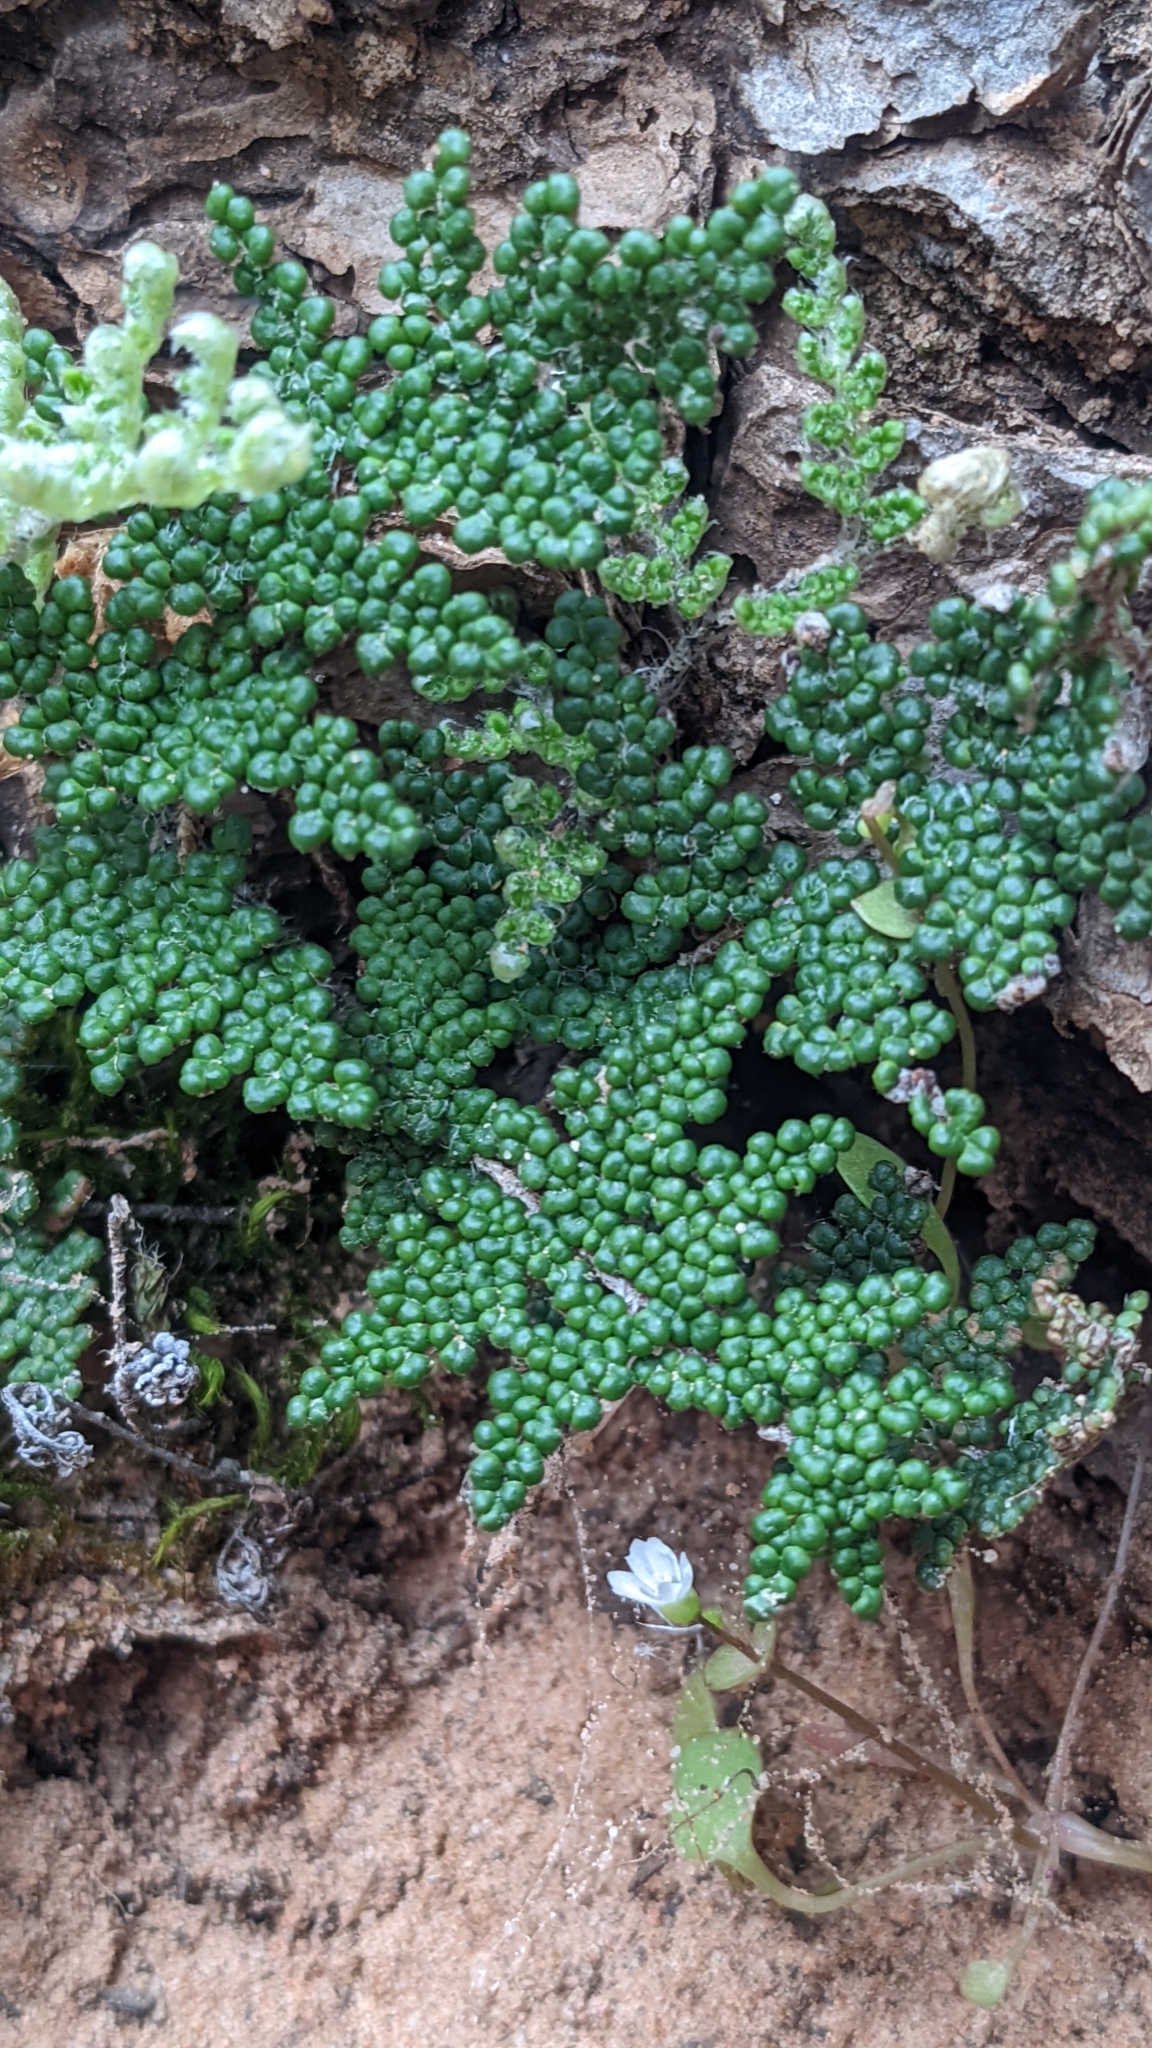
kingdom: Plantae
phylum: Tracheophyta
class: Polypodiopsida
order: Polypodiales
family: Pteridaceae
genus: Myriopteris
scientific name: Myriopteris covillei
